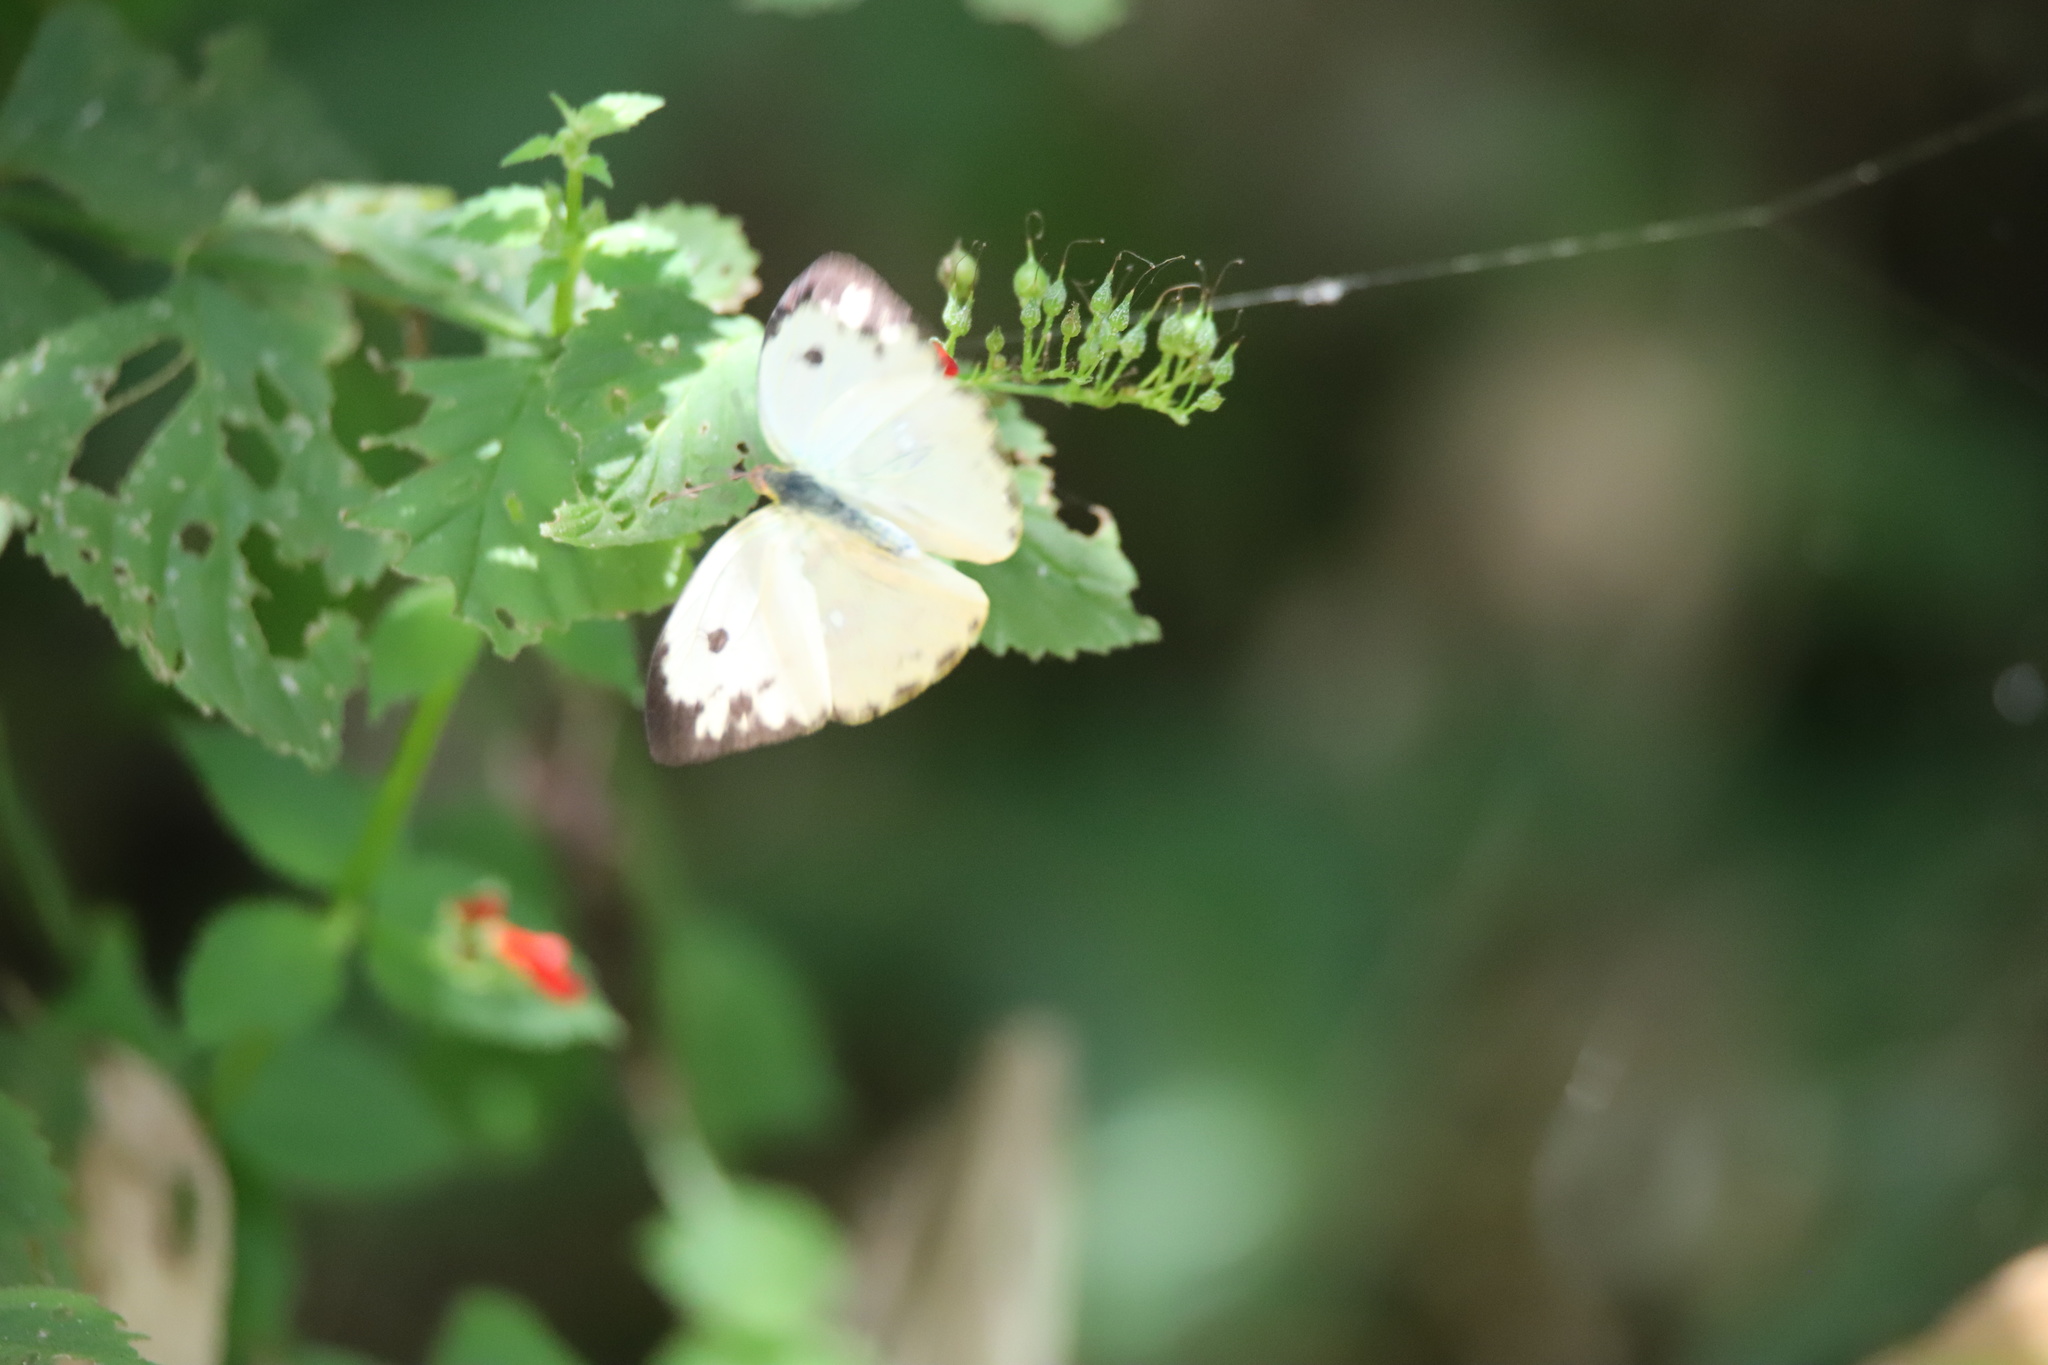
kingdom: Animalia
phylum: Arthropoda
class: Insecta
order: Lepidoptera
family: Pieridae
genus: Phoebis
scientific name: Phoebis argante
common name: Apricot sulphur
